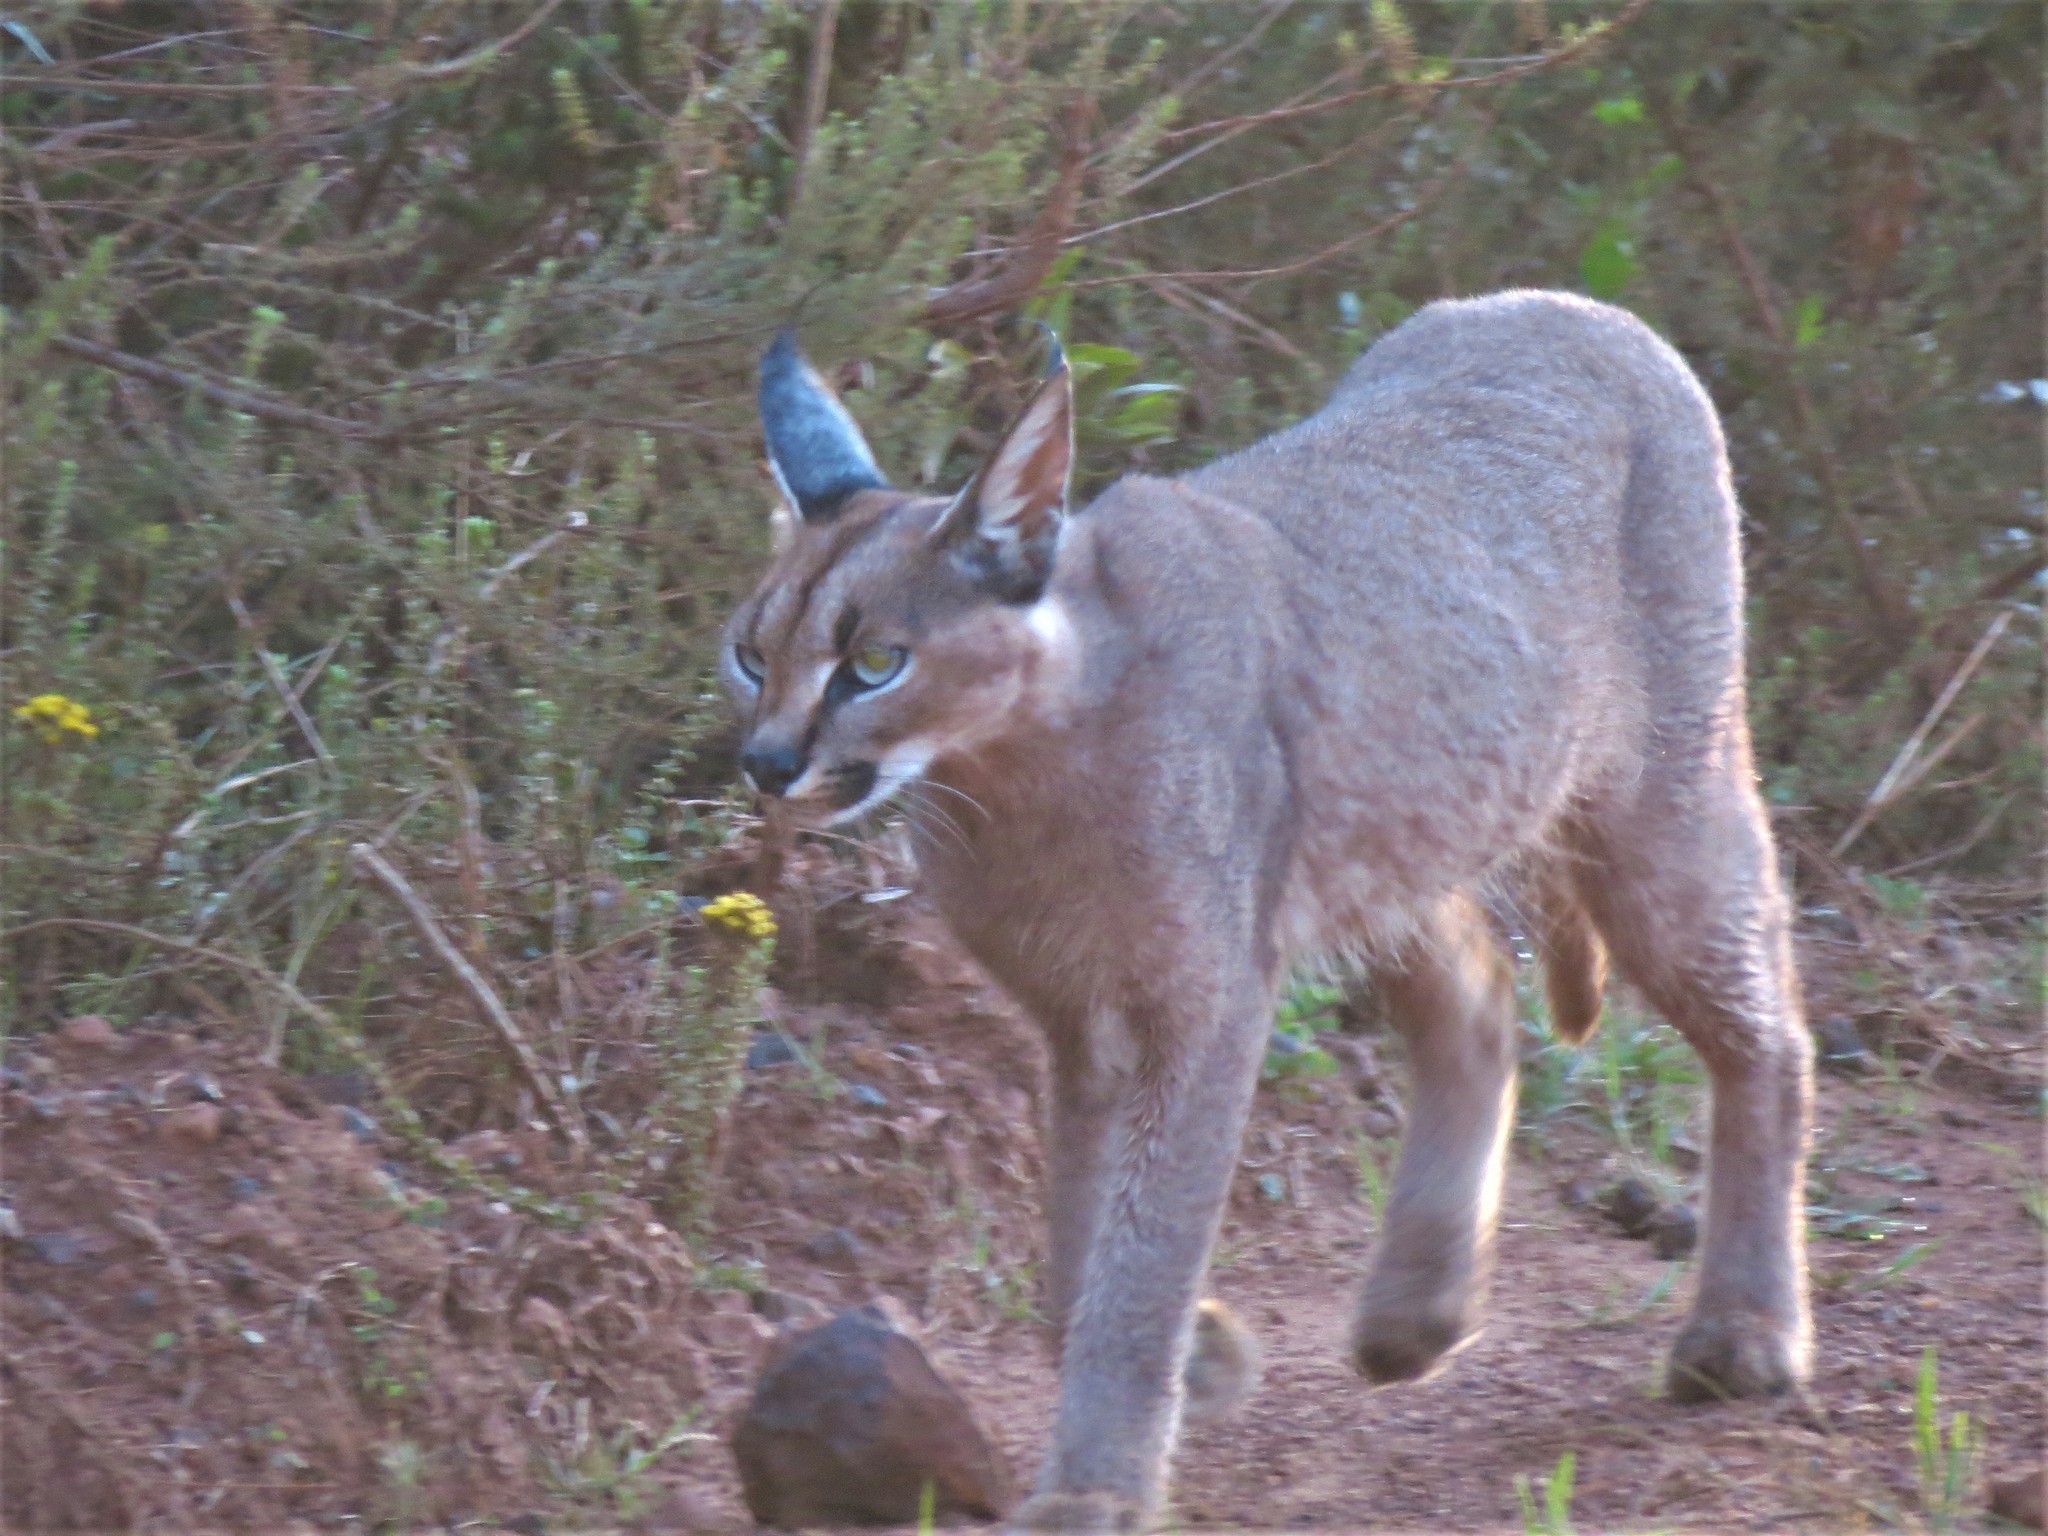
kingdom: Animalia
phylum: Chordata
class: Mammalia
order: Carnivora
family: Felidae
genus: Caracal
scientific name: Caracal caracal
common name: Caracal
